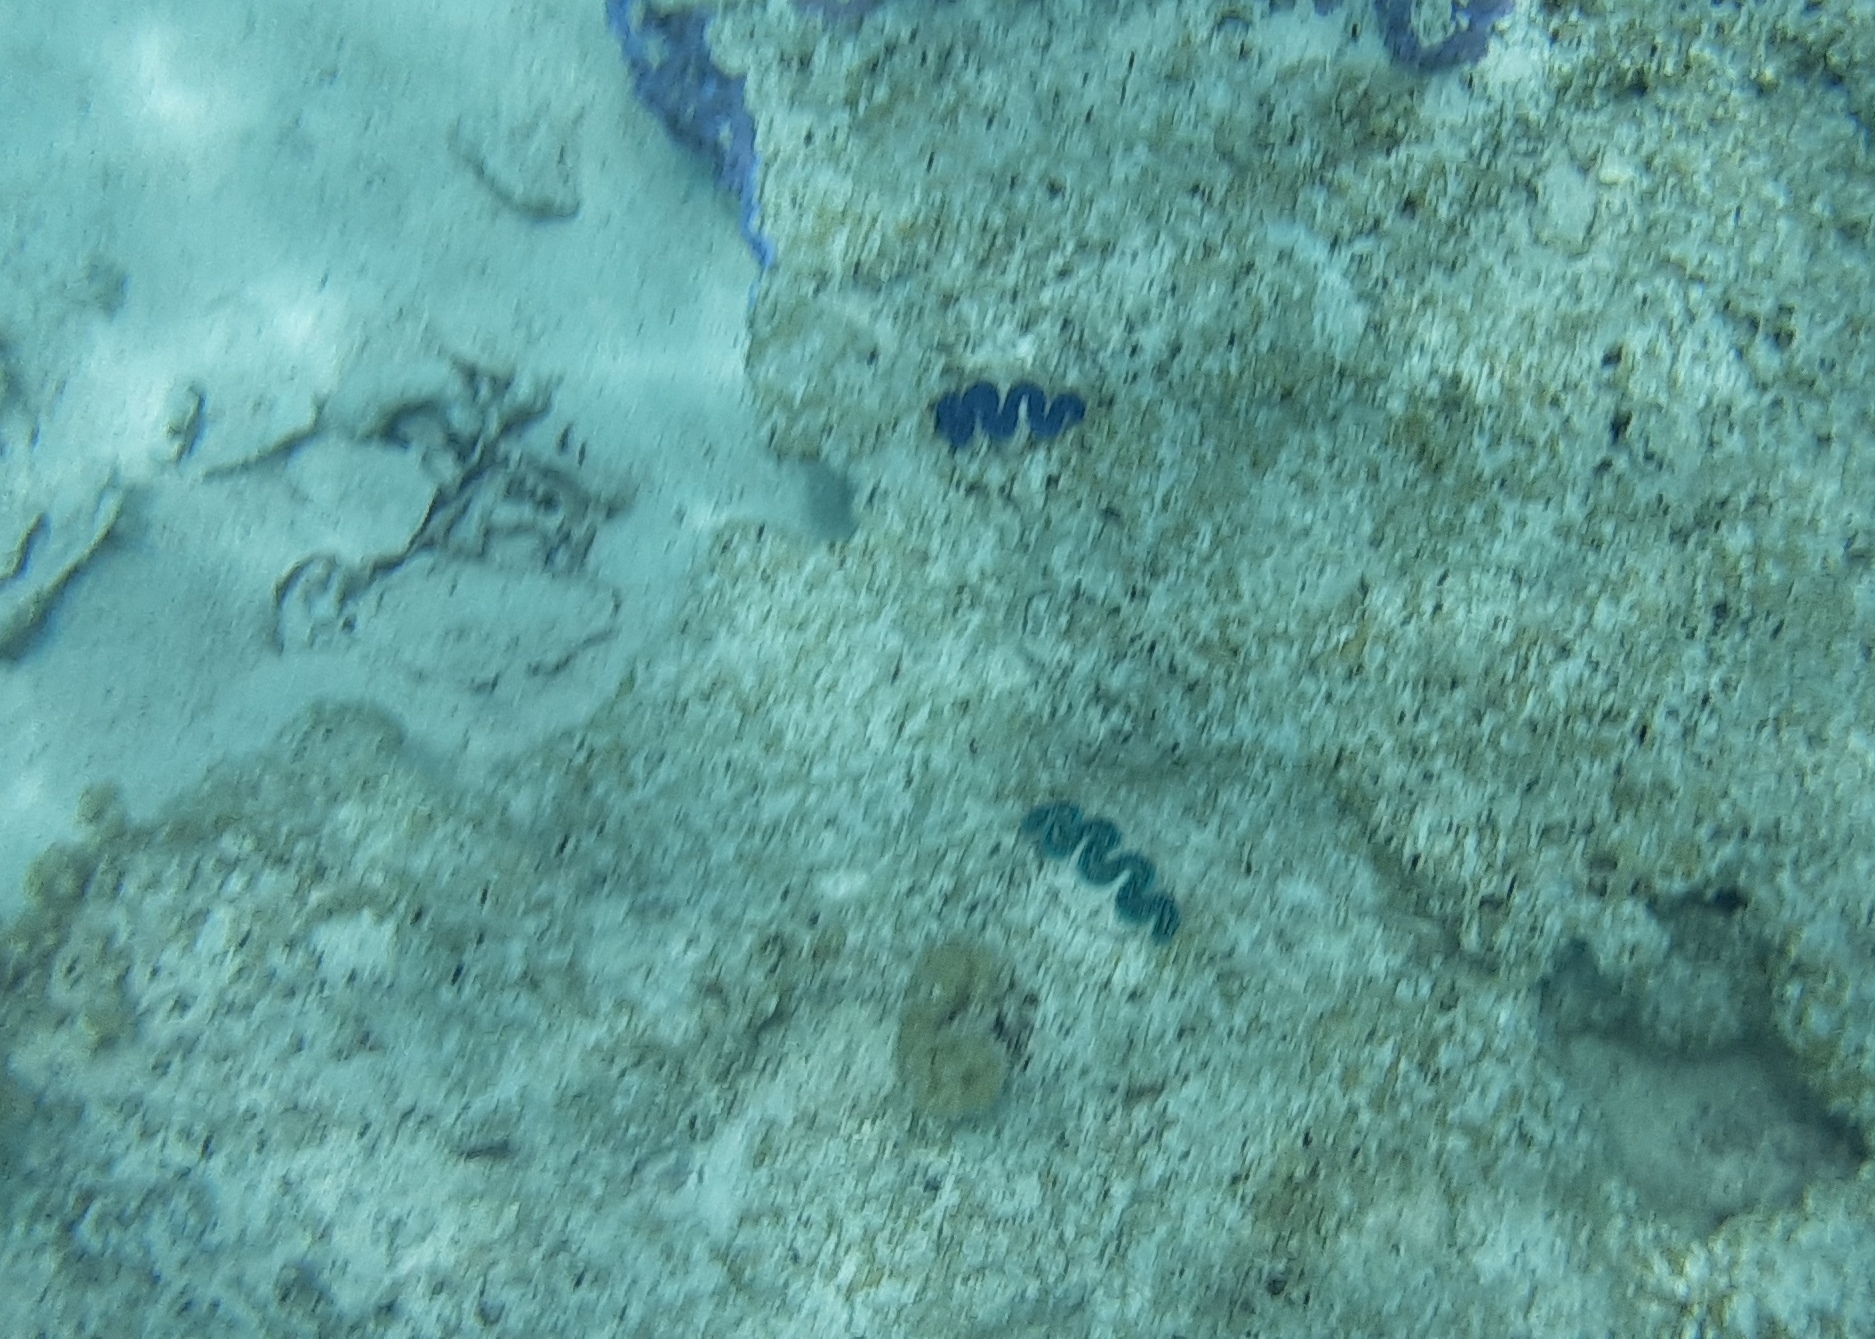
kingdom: Animalia
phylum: Mollusca
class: Bivalvia
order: Cardiida
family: Cardiidae
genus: Tridacna
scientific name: Tridacna maxima
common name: Small giant clam
